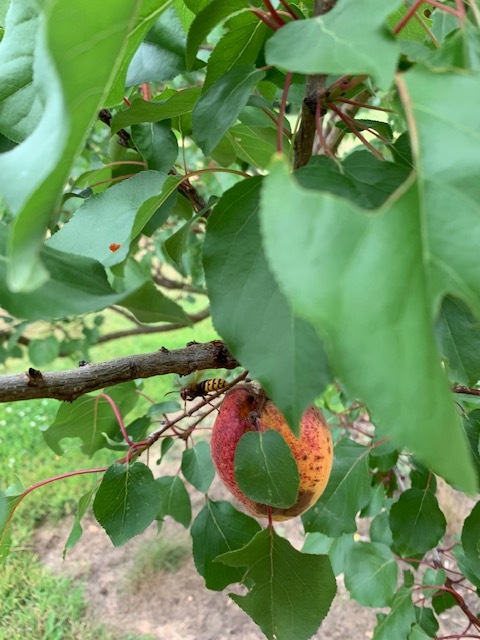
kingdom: Animalia
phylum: Arthropoda
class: Insecta
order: Hymenoptera
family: Vespidae
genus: Vespa
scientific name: Vespa crabro
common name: Hornet
